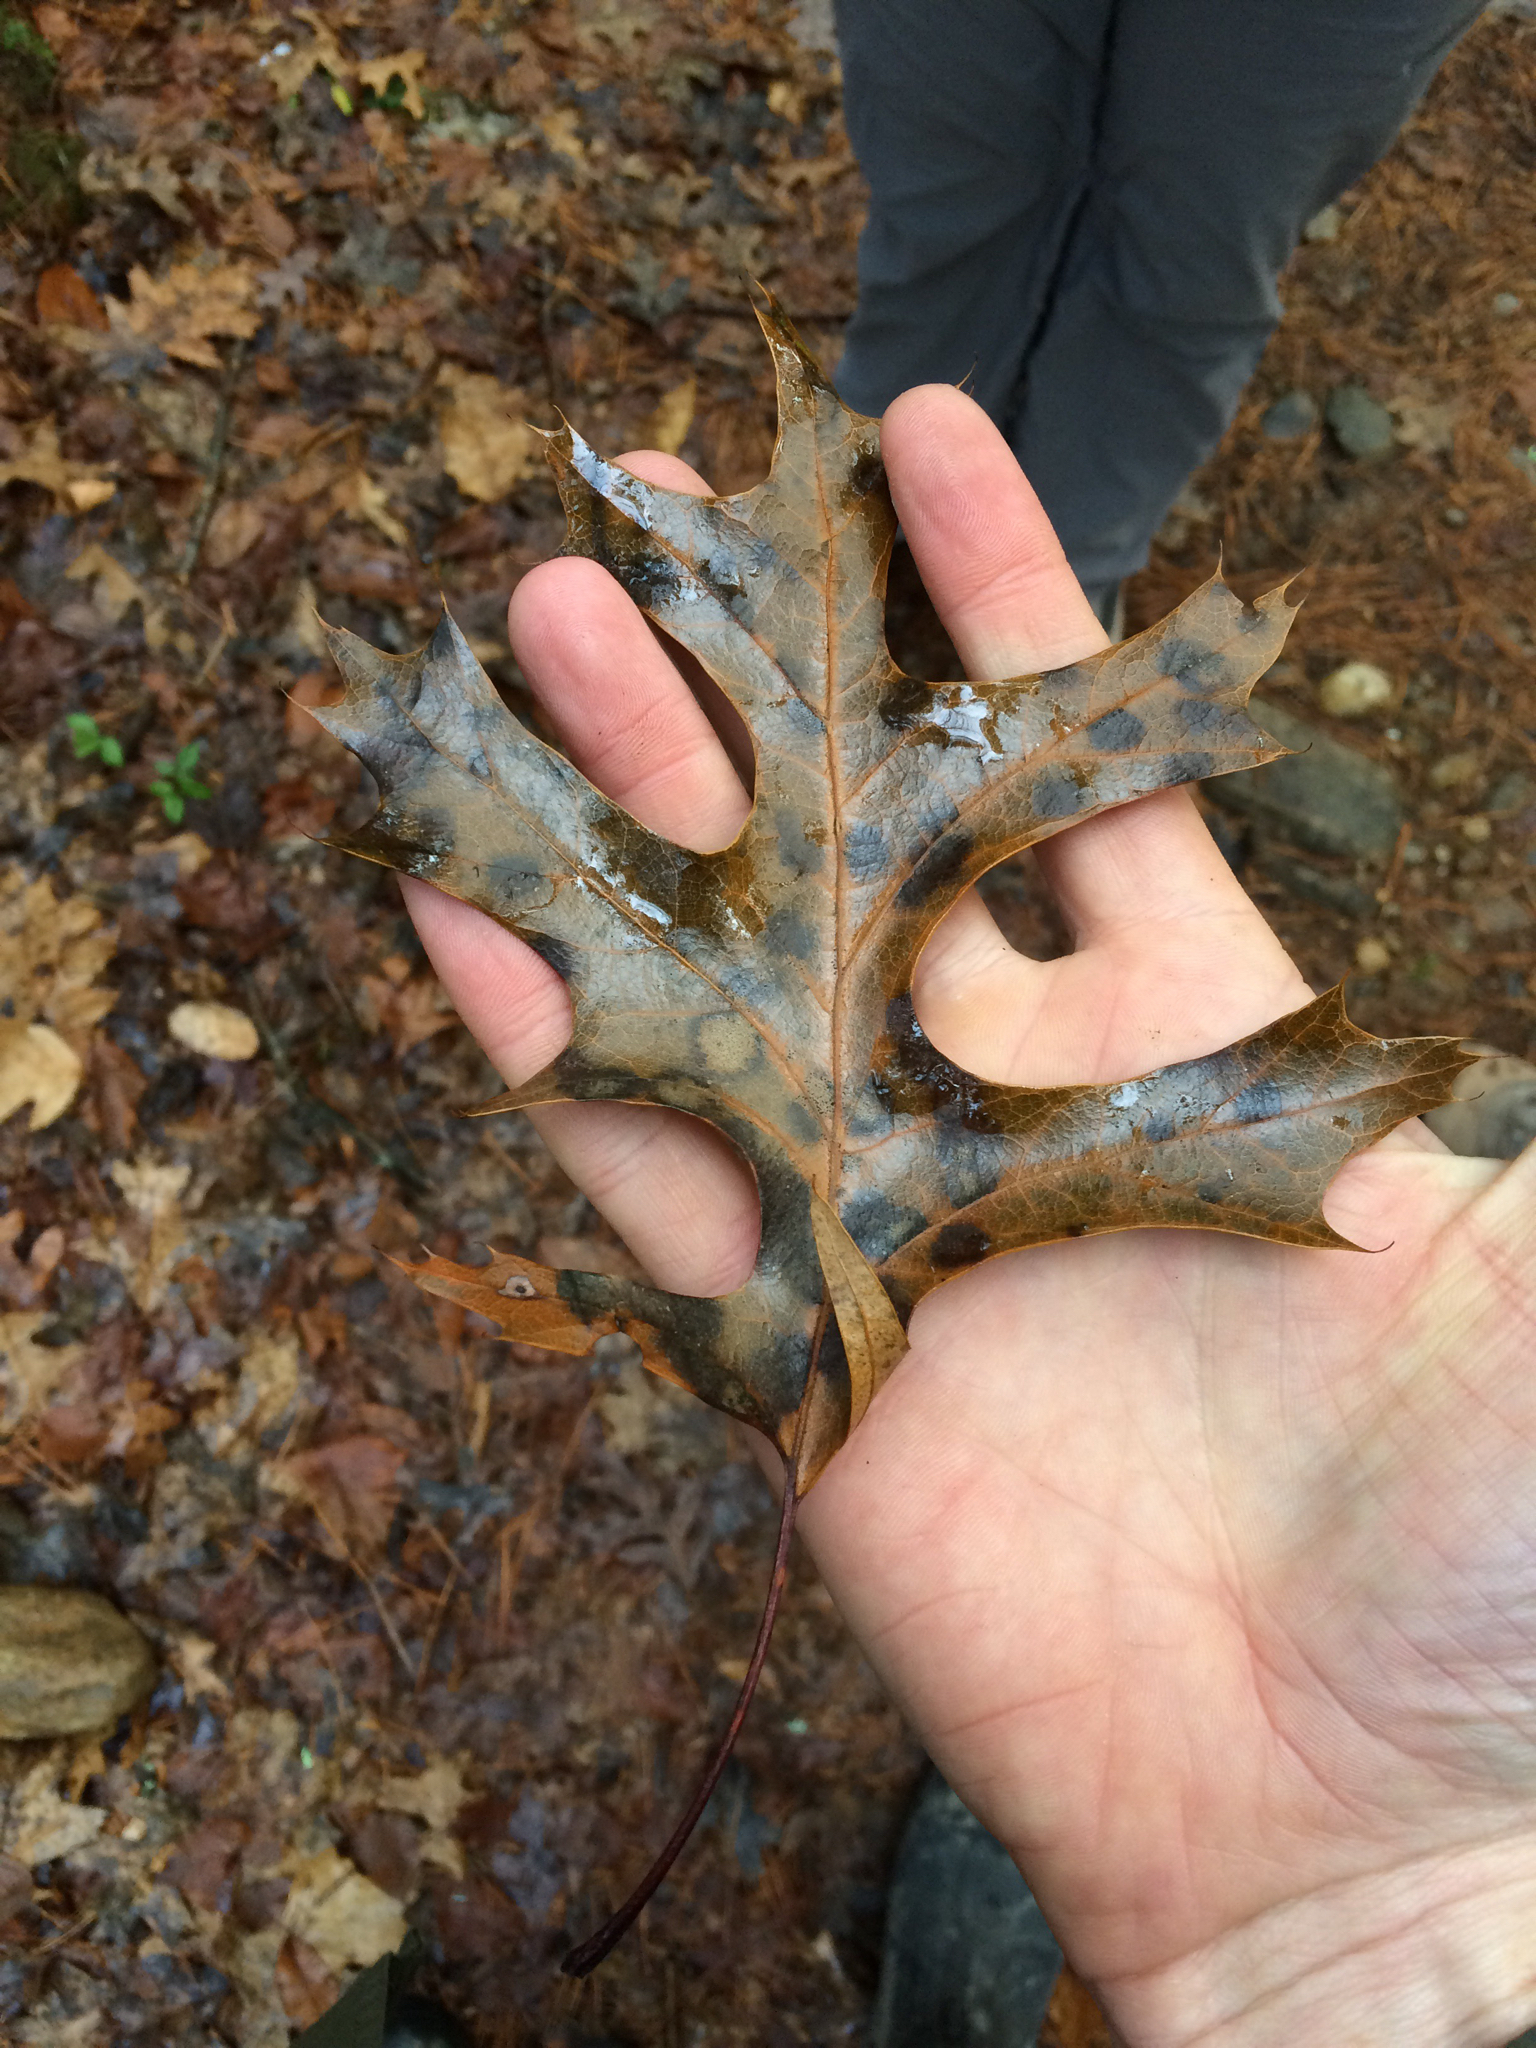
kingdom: Plantae
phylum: Tracheophyta
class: Magnoliopsida
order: Fagales
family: Fagaceae
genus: Quercus
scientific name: Quercus coccinea
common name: Scarlet oak
